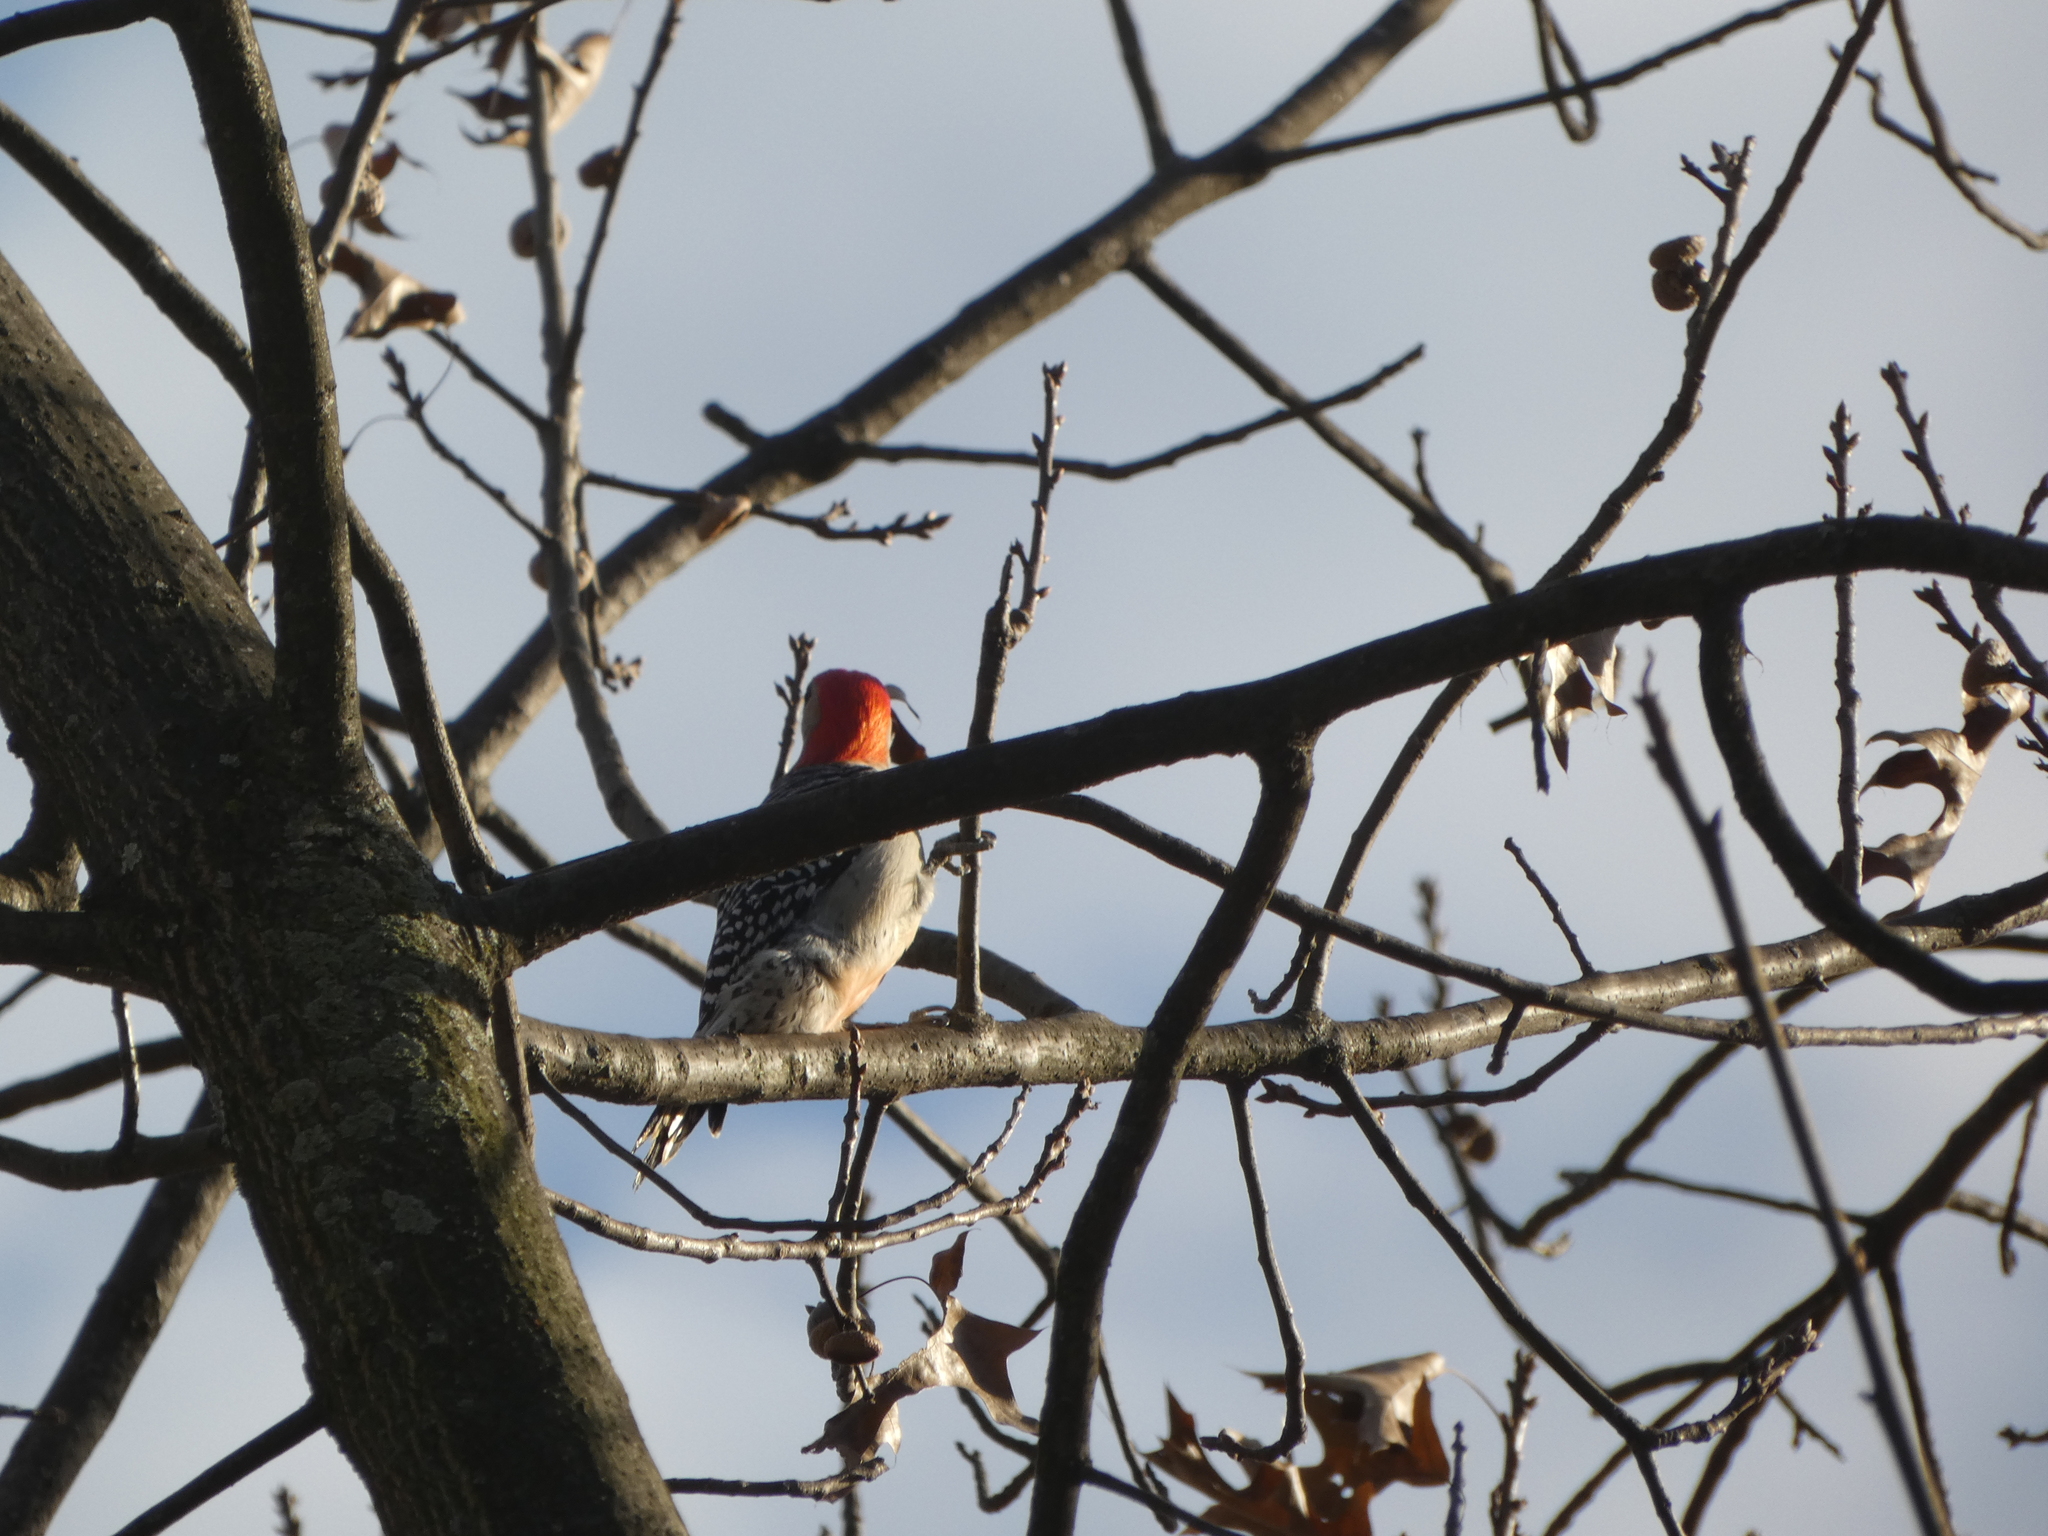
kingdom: Animalia
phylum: Chordata
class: Aves
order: Piciformes
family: Picidae
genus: Melanerpes
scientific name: Melanerpes carolinus
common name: Red-bellied woodpecker
